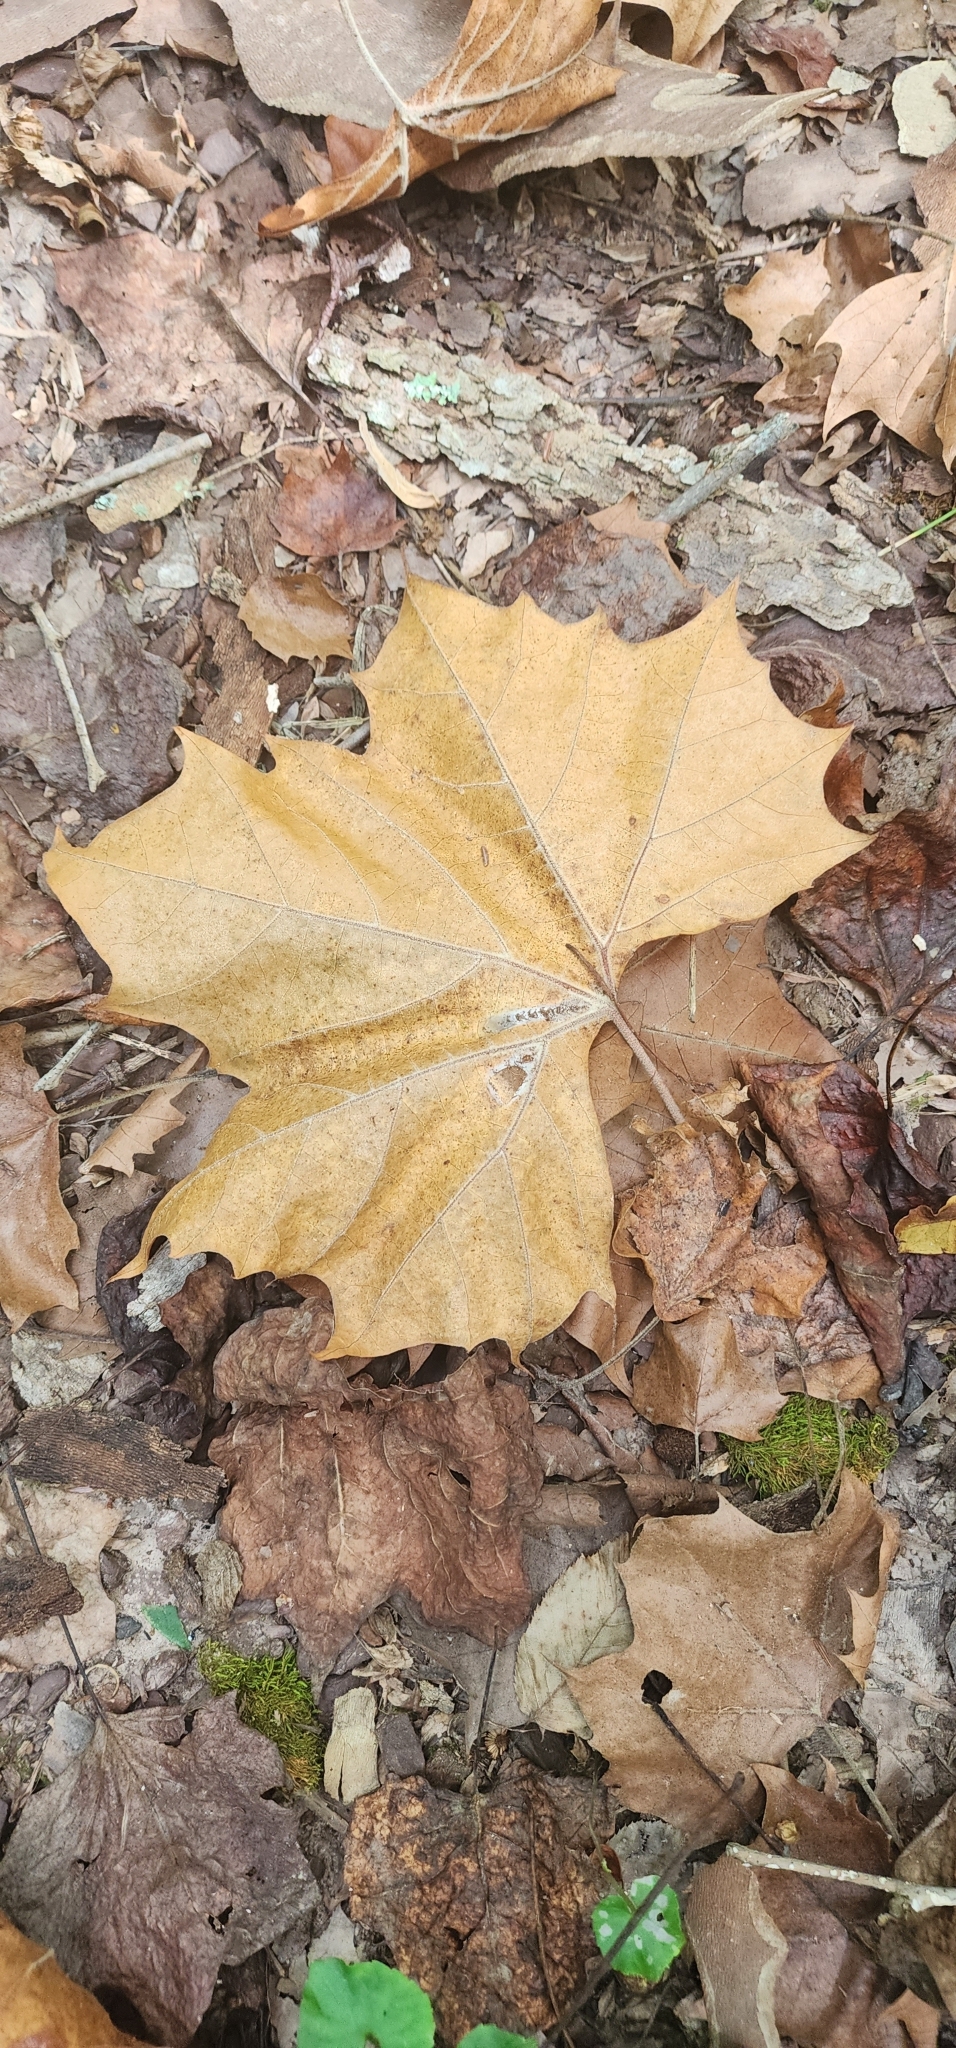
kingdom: Plantae
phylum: Tracheophyta
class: Magnoliopsida
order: Proteales
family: Platanaceae
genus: Platanus
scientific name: Platanus occidentalis
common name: American sycamore
